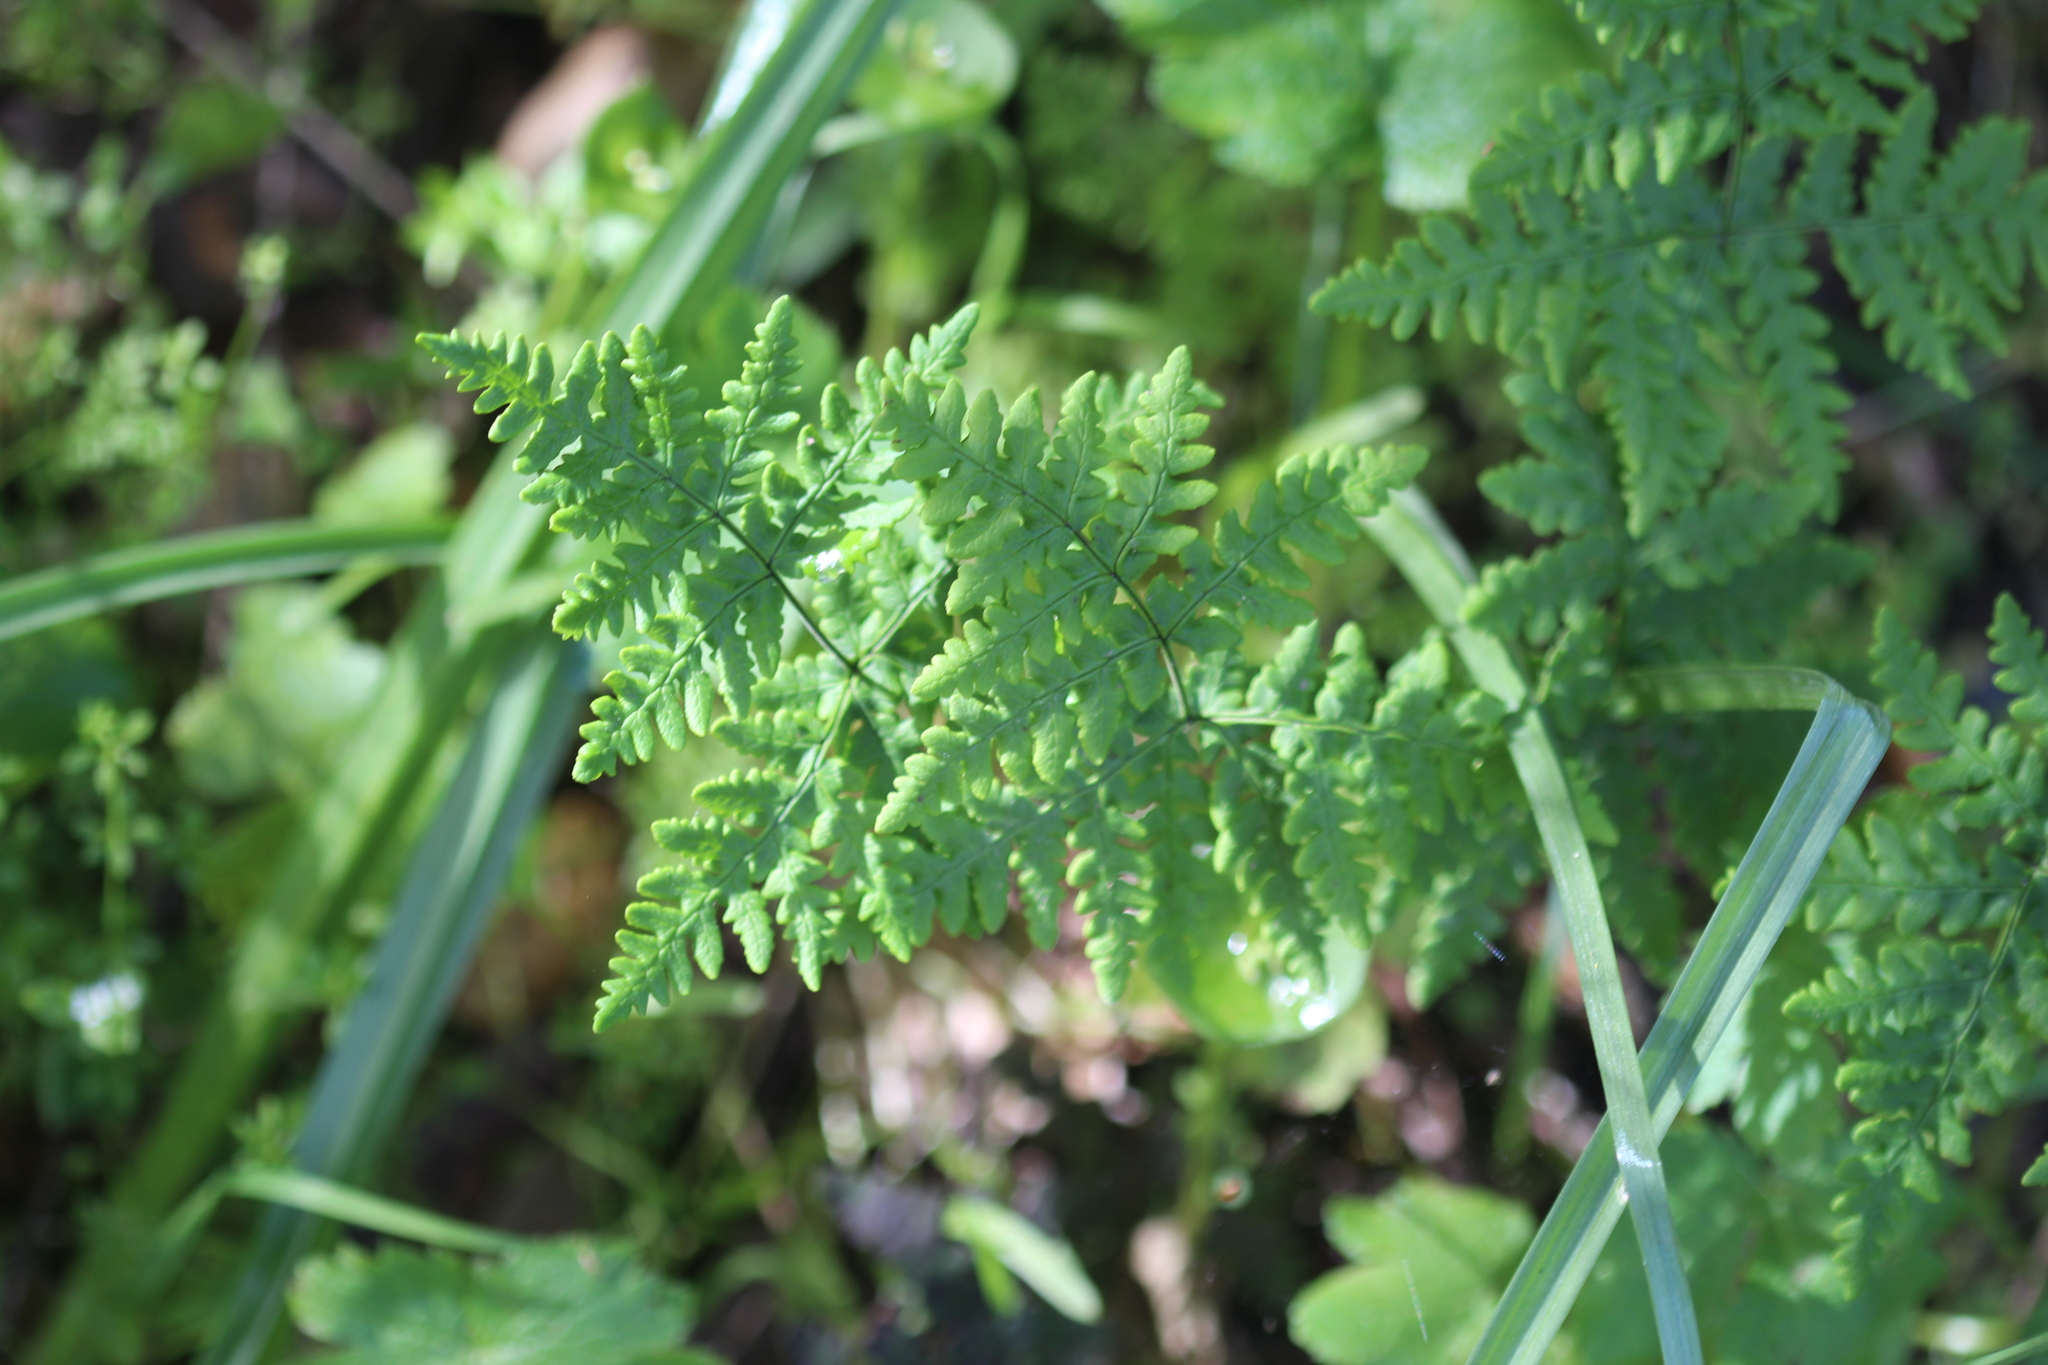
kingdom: Plantae
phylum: Tracheophyta
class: Polypodiopsida
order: Polypodiales
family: Pteridaceae
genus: Pentagramma
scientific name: Pentagramma triangularis
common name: Gold fern
